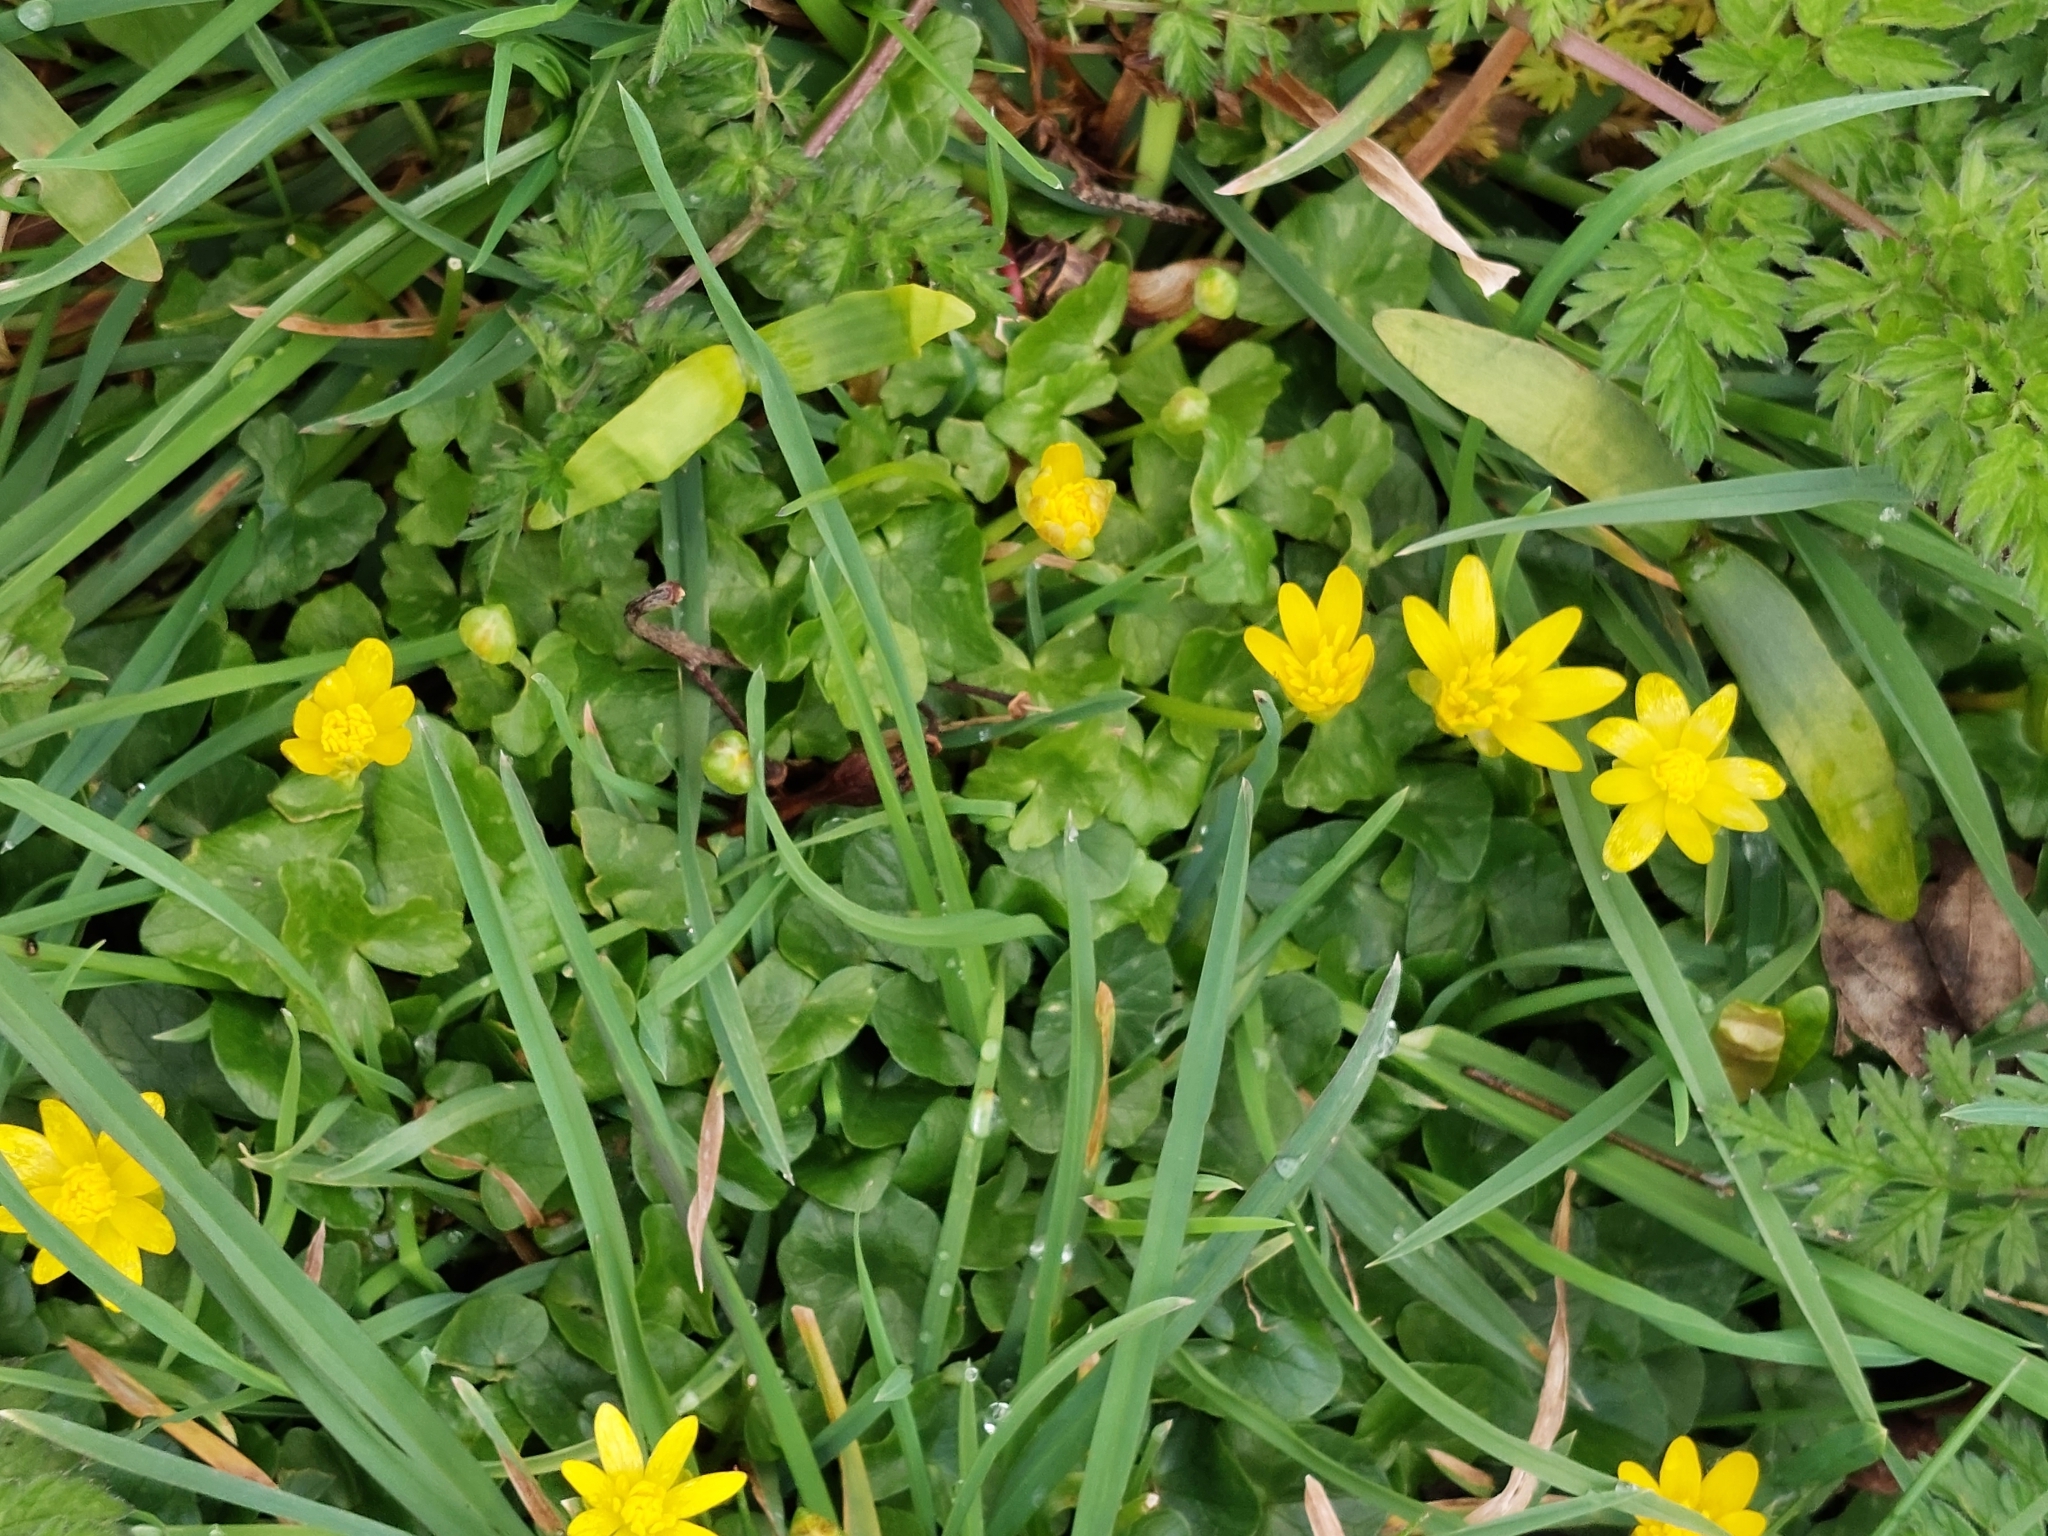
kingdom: Plantae
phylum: Tracheophyta
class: Magnoliopsida
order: Ranunculales
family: Ranunculaceae
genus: Ficaria
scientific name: Ficaria verna
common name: Lesser celandine
